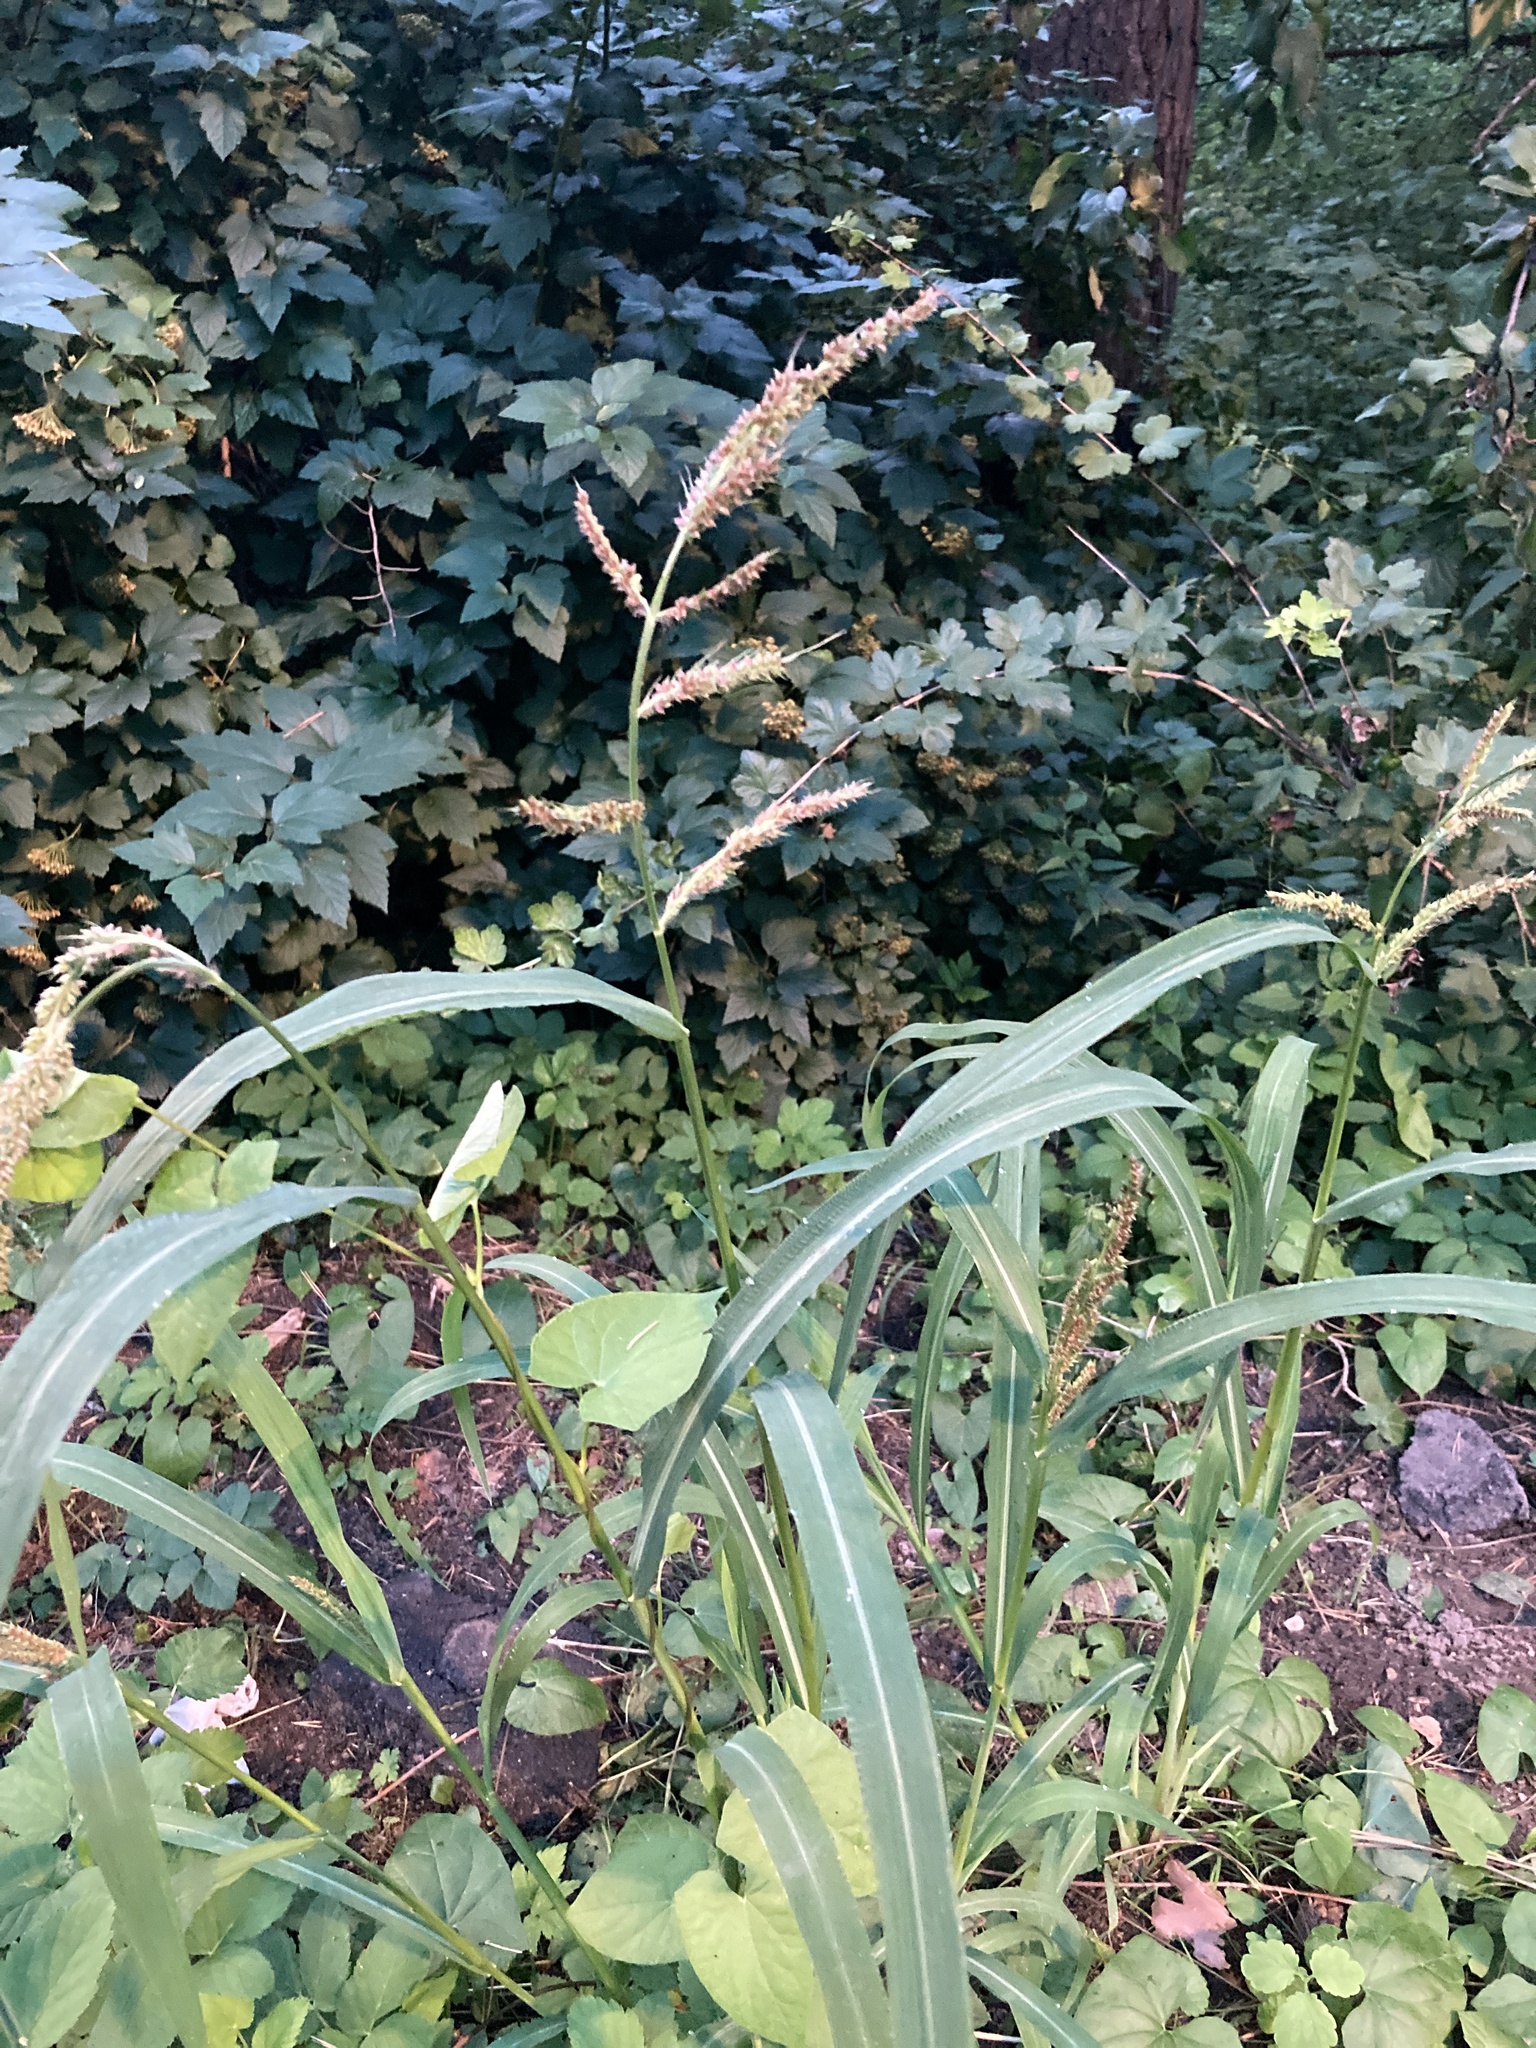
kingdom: Plantae
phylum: Tracheophyta
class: Liliopsida
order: Poales
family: Poaceae
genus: Echinochloa
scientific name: Echinochloa crus-galli
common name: Cockspur
